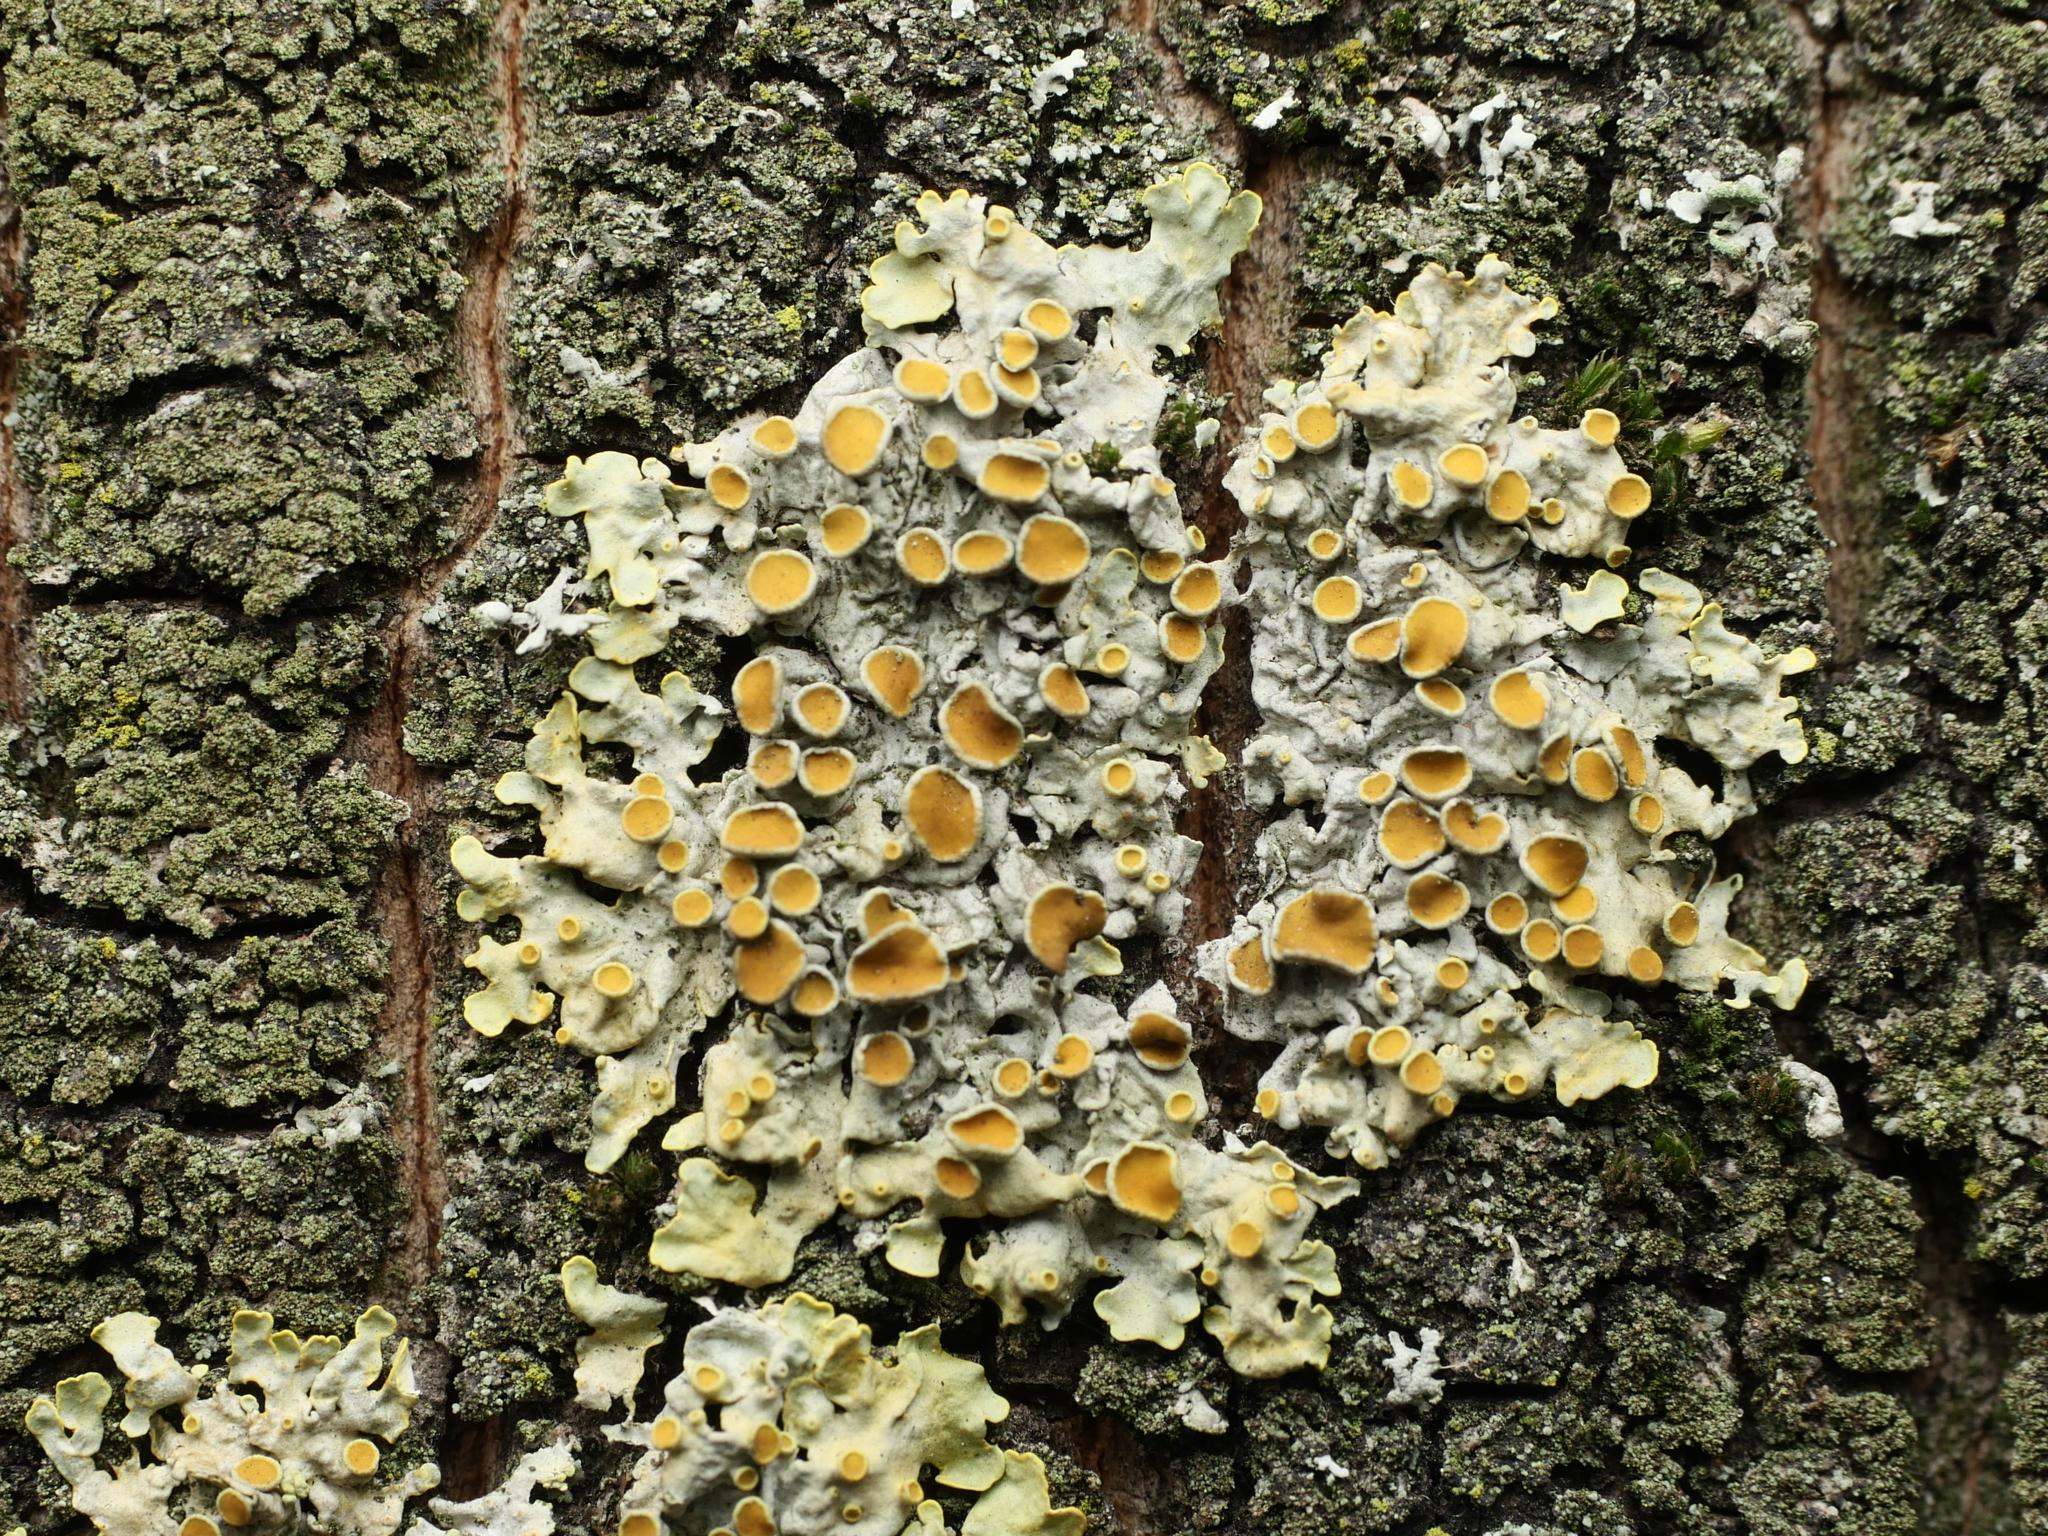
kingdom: Fungi
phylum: Ascomycota
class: Lecanoromycetes
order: Teloschistales
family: Teloschistaceae
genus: Xanthoria
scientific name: Xanthoria parietina
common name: Common orange lichen
